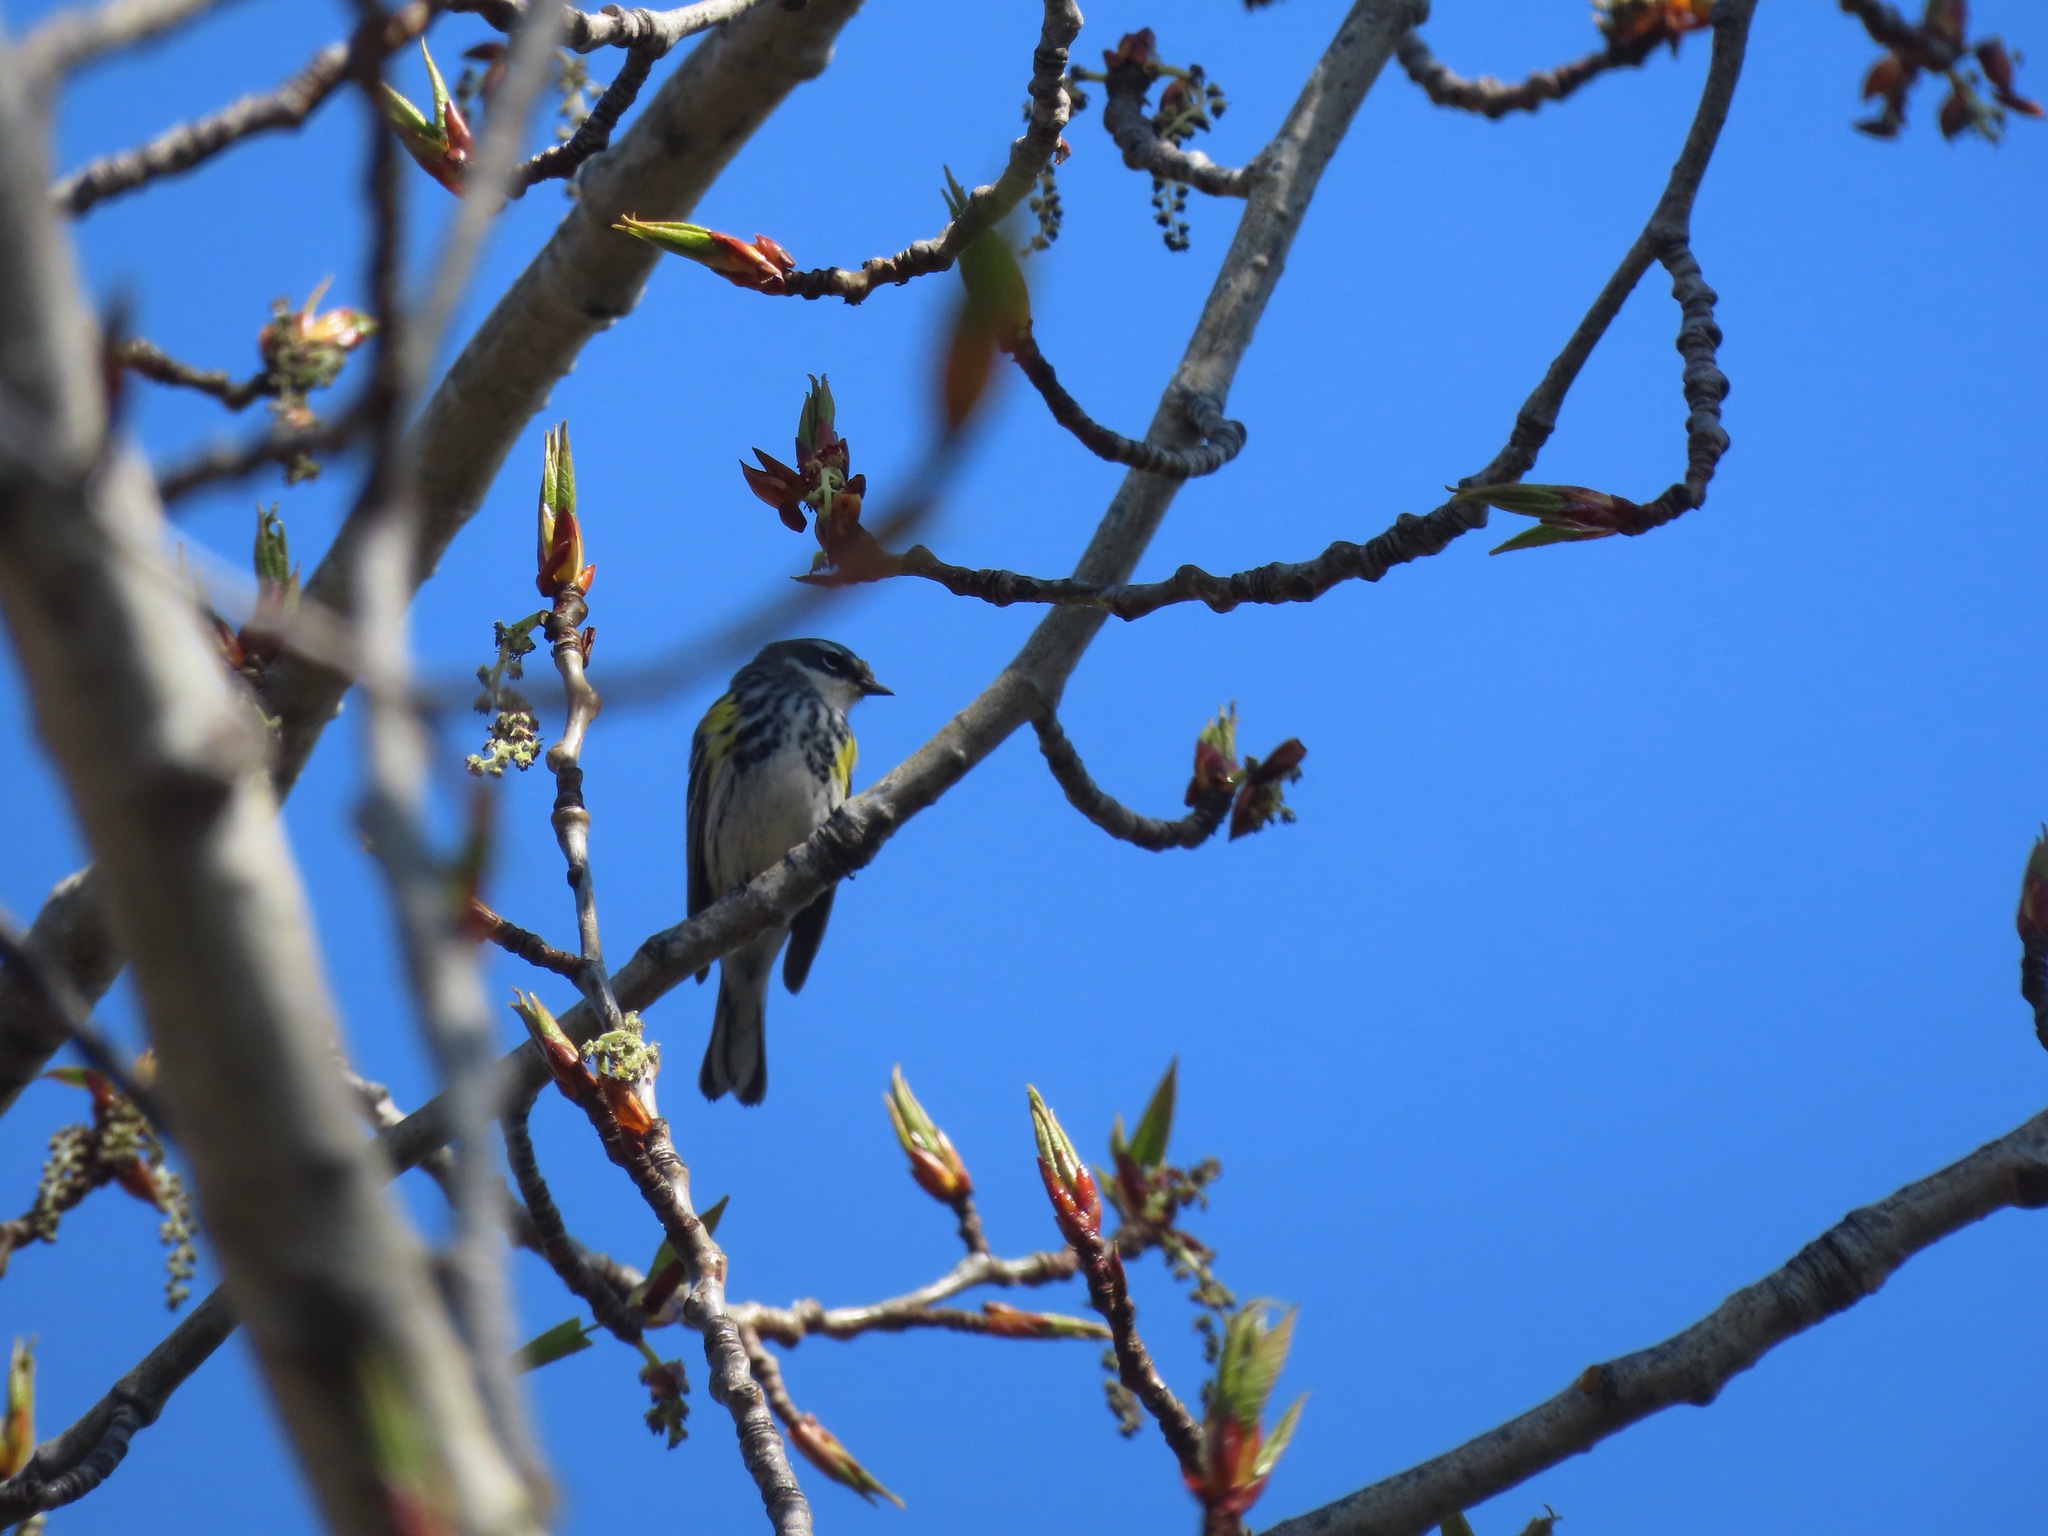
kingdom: Animalia
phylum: Chordata
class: Aves
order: Passeriformes
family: Parulidae
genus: Setophaga
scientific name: Setophaga coronata
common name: Myrtle warbler
